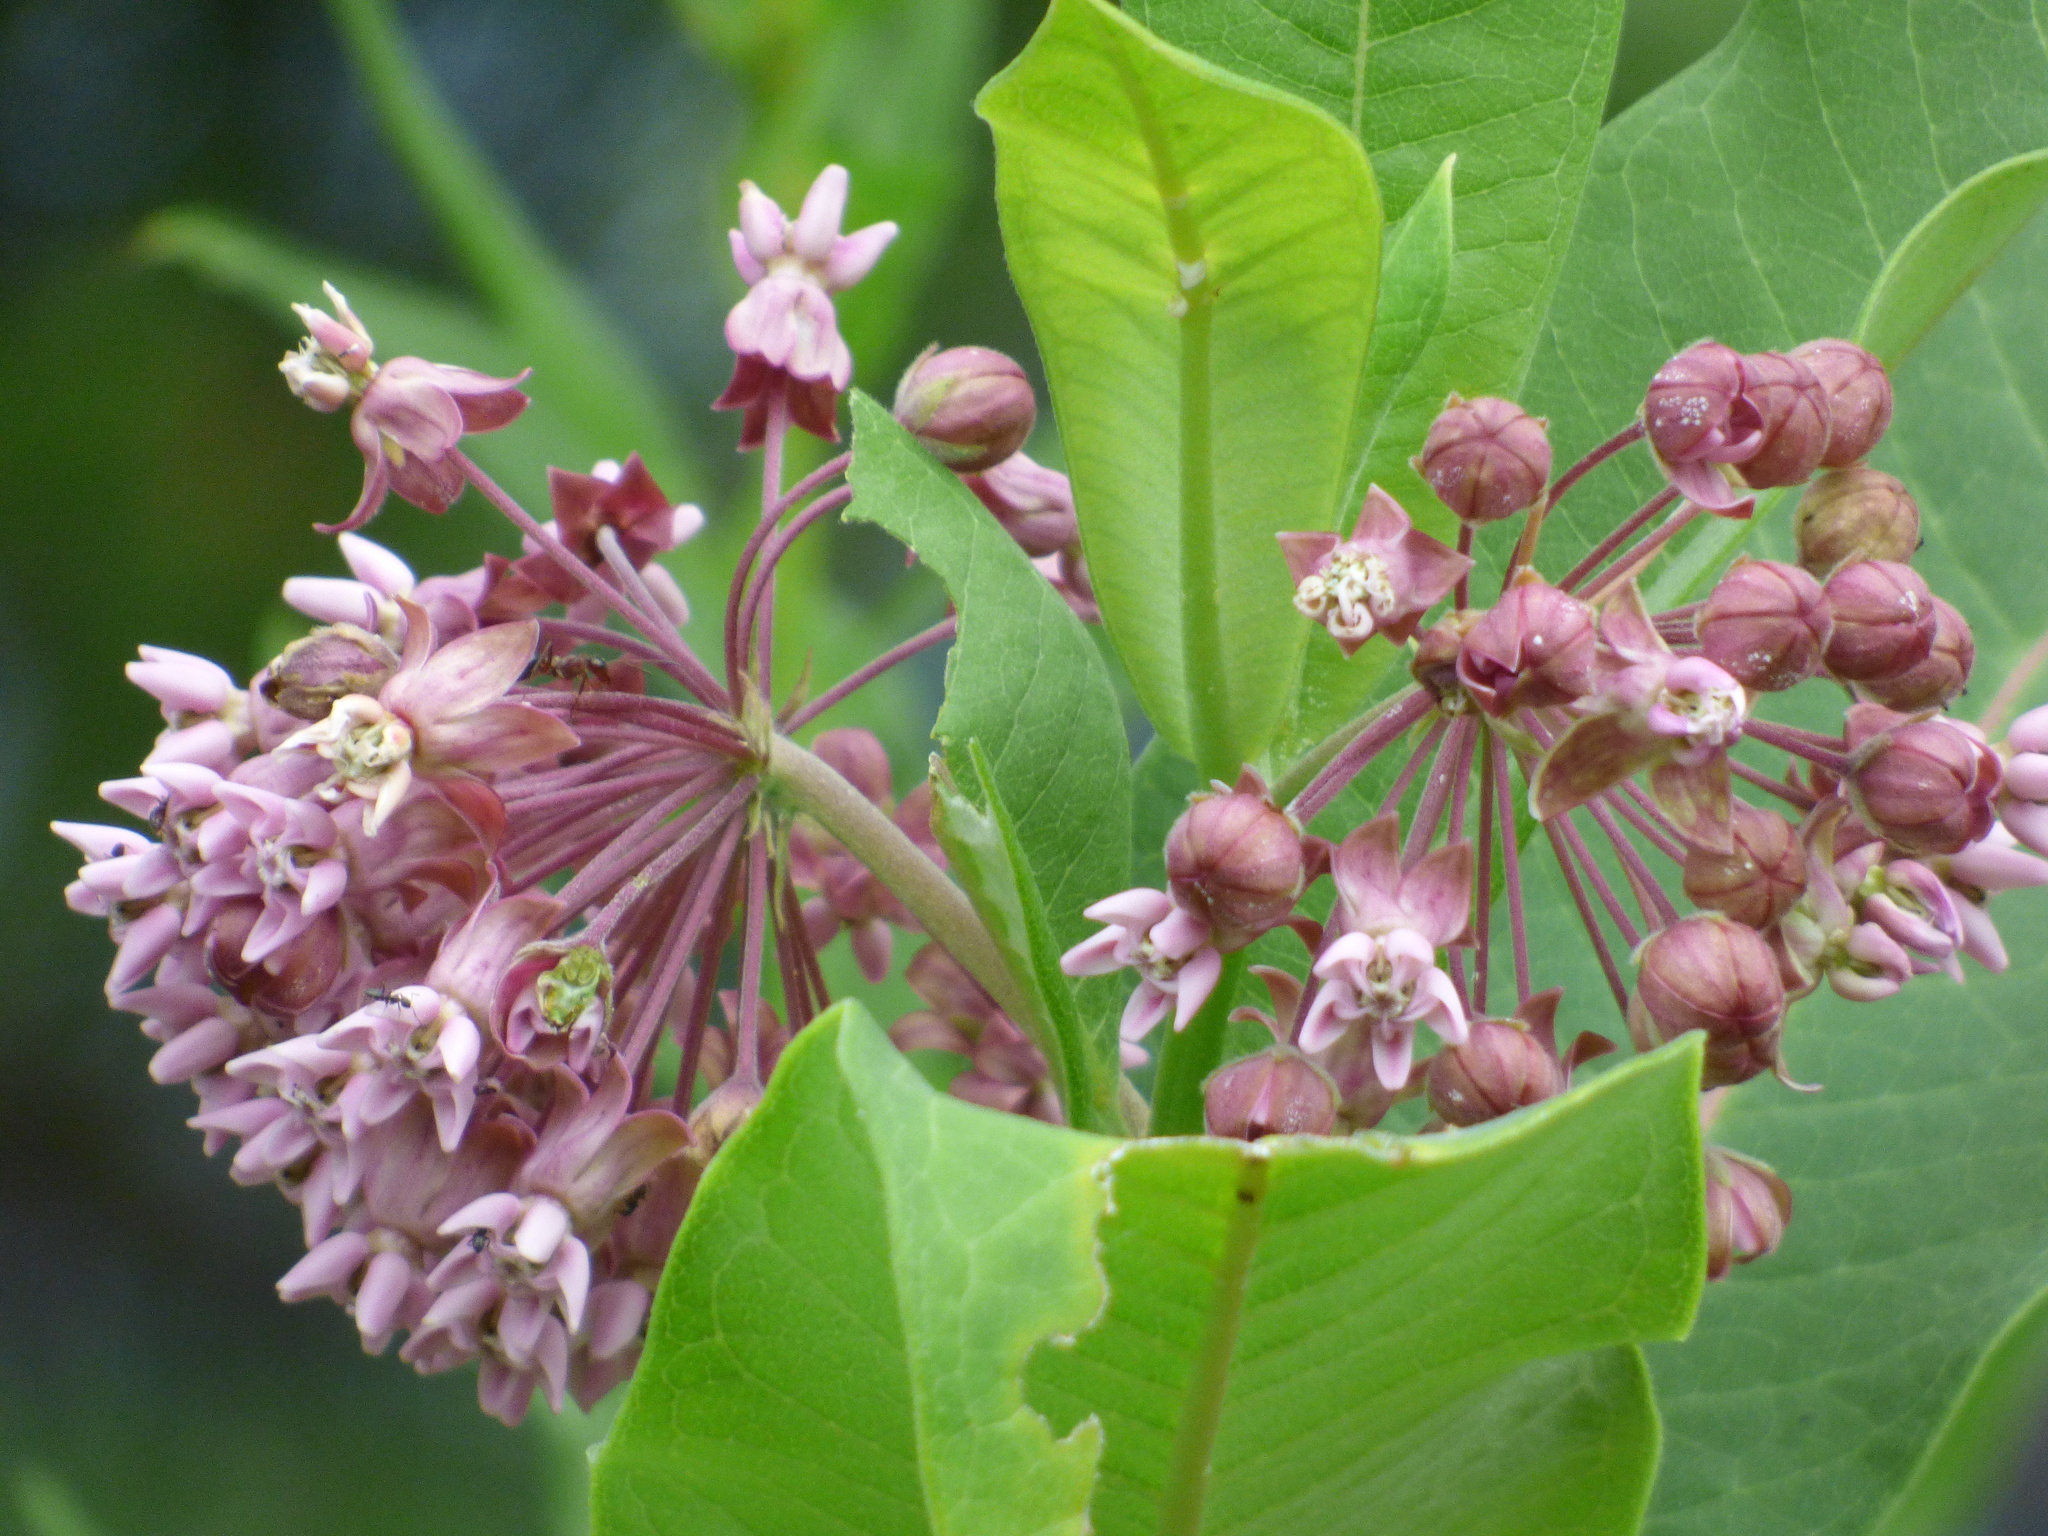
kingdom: Plantae
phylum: Tracheophyta
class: Magnoliopsida
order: Gentianales
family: Apocynaceae
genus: Asclepias
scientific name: Asclepias syriaca
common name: Common milkweed
